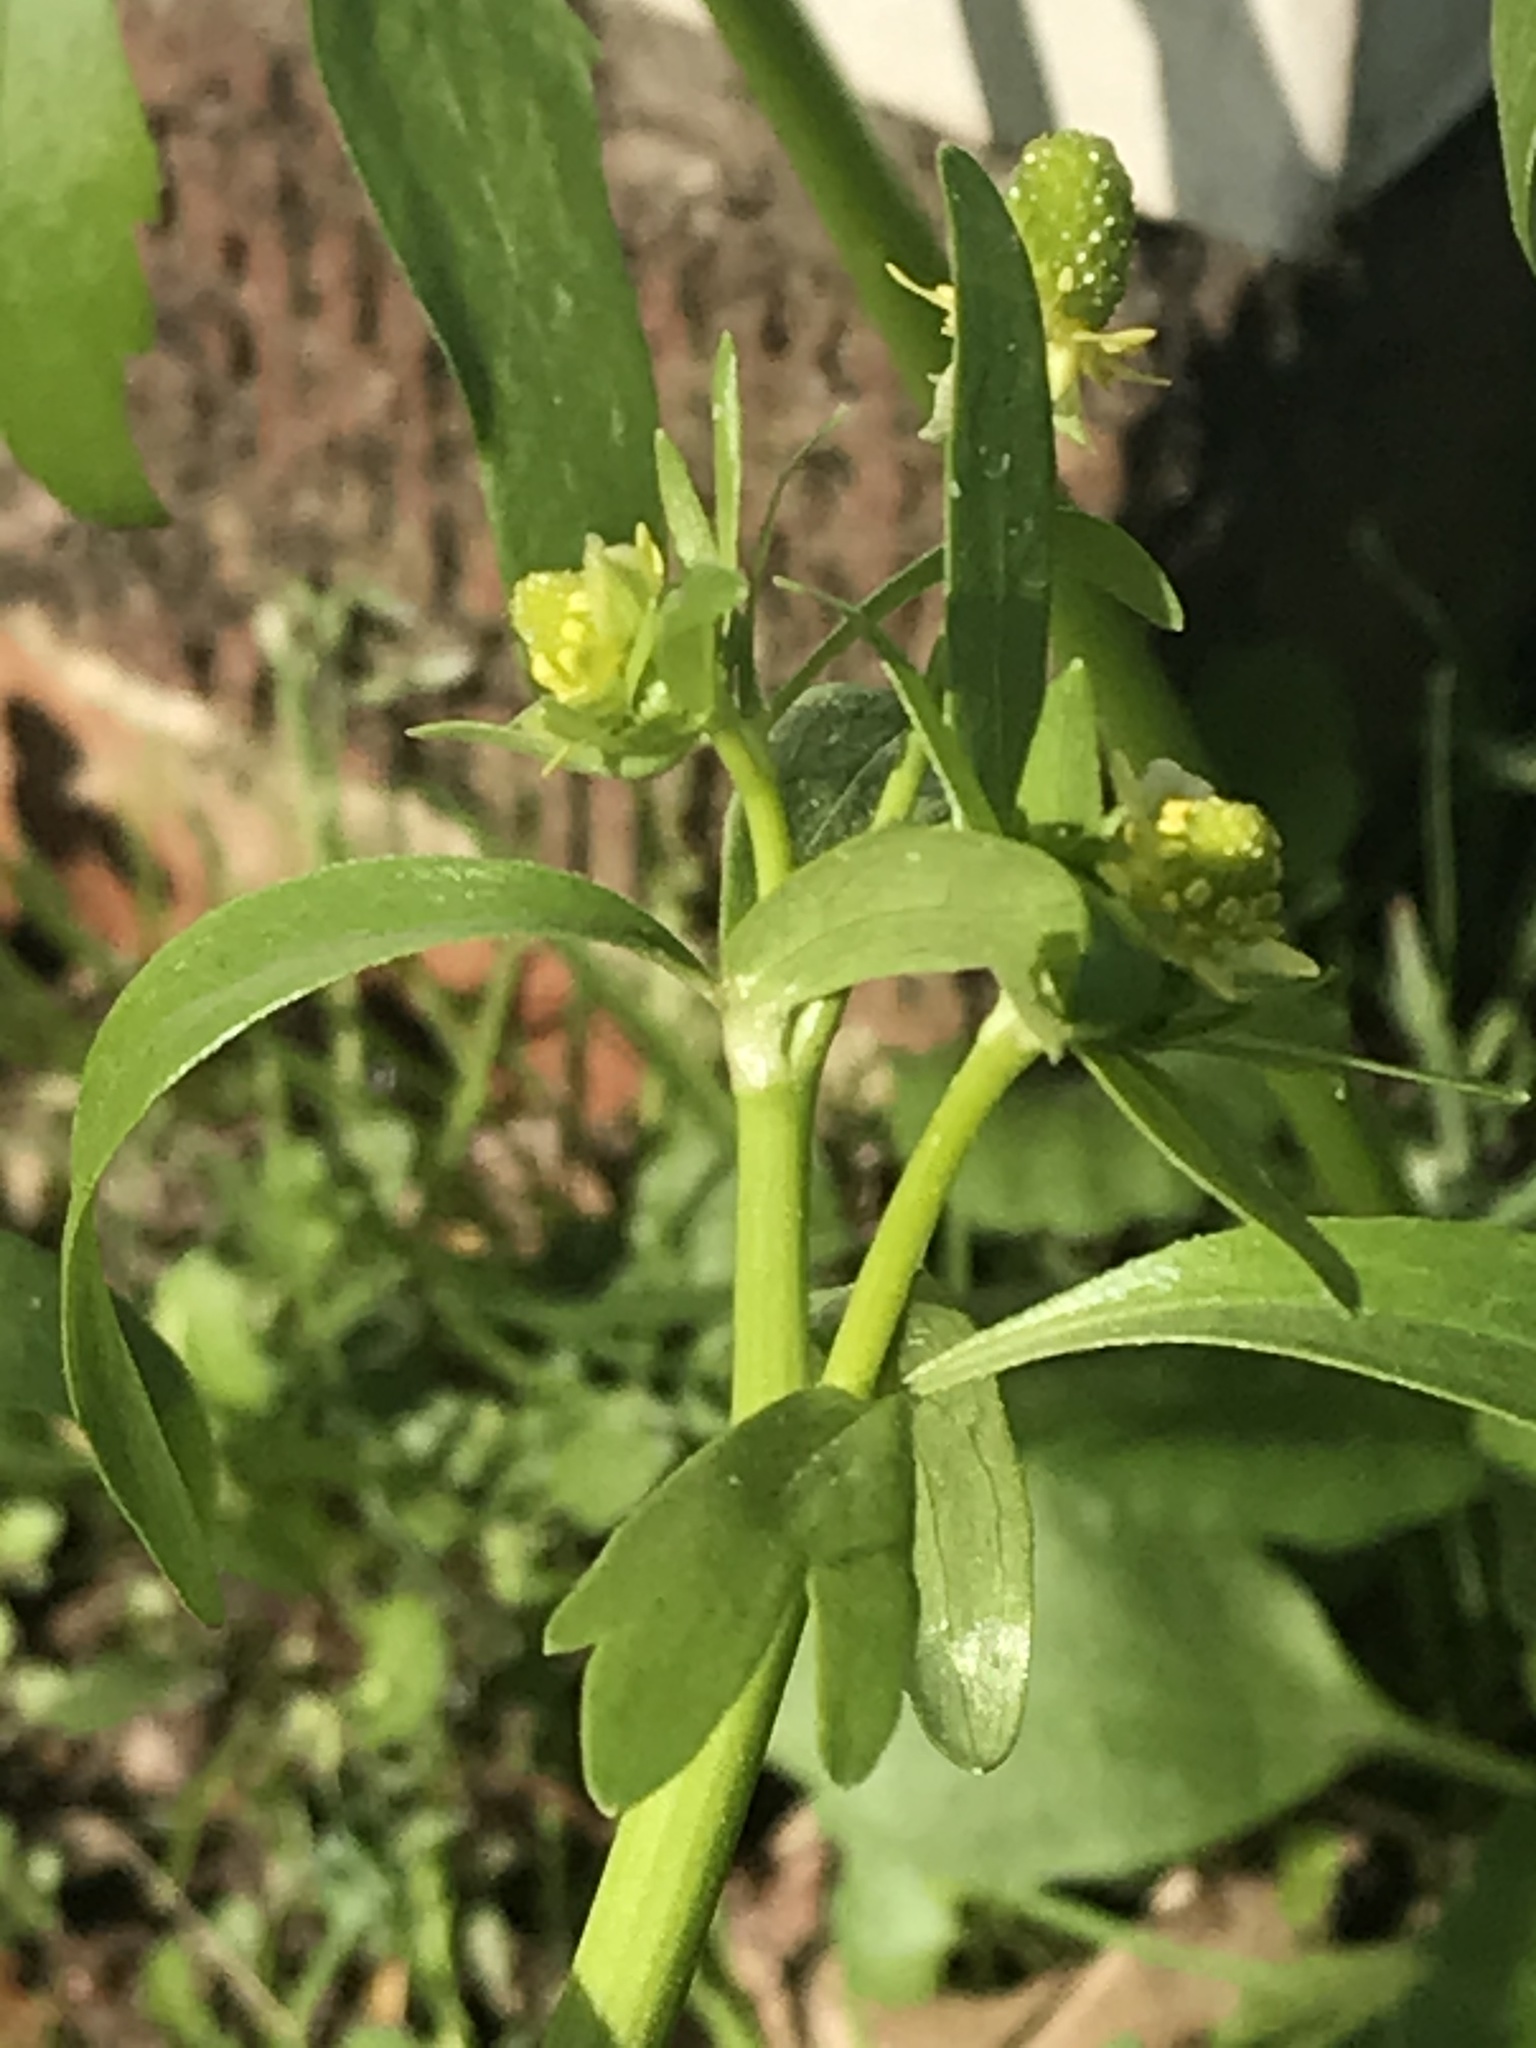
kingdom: Plantae
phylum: Tracheophyta
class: Magnoliopsida
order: Ranunculales
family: Ranunculaceae
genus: Ranunculus
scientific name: Ranunculus abortivus
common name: Early wood buttercup
